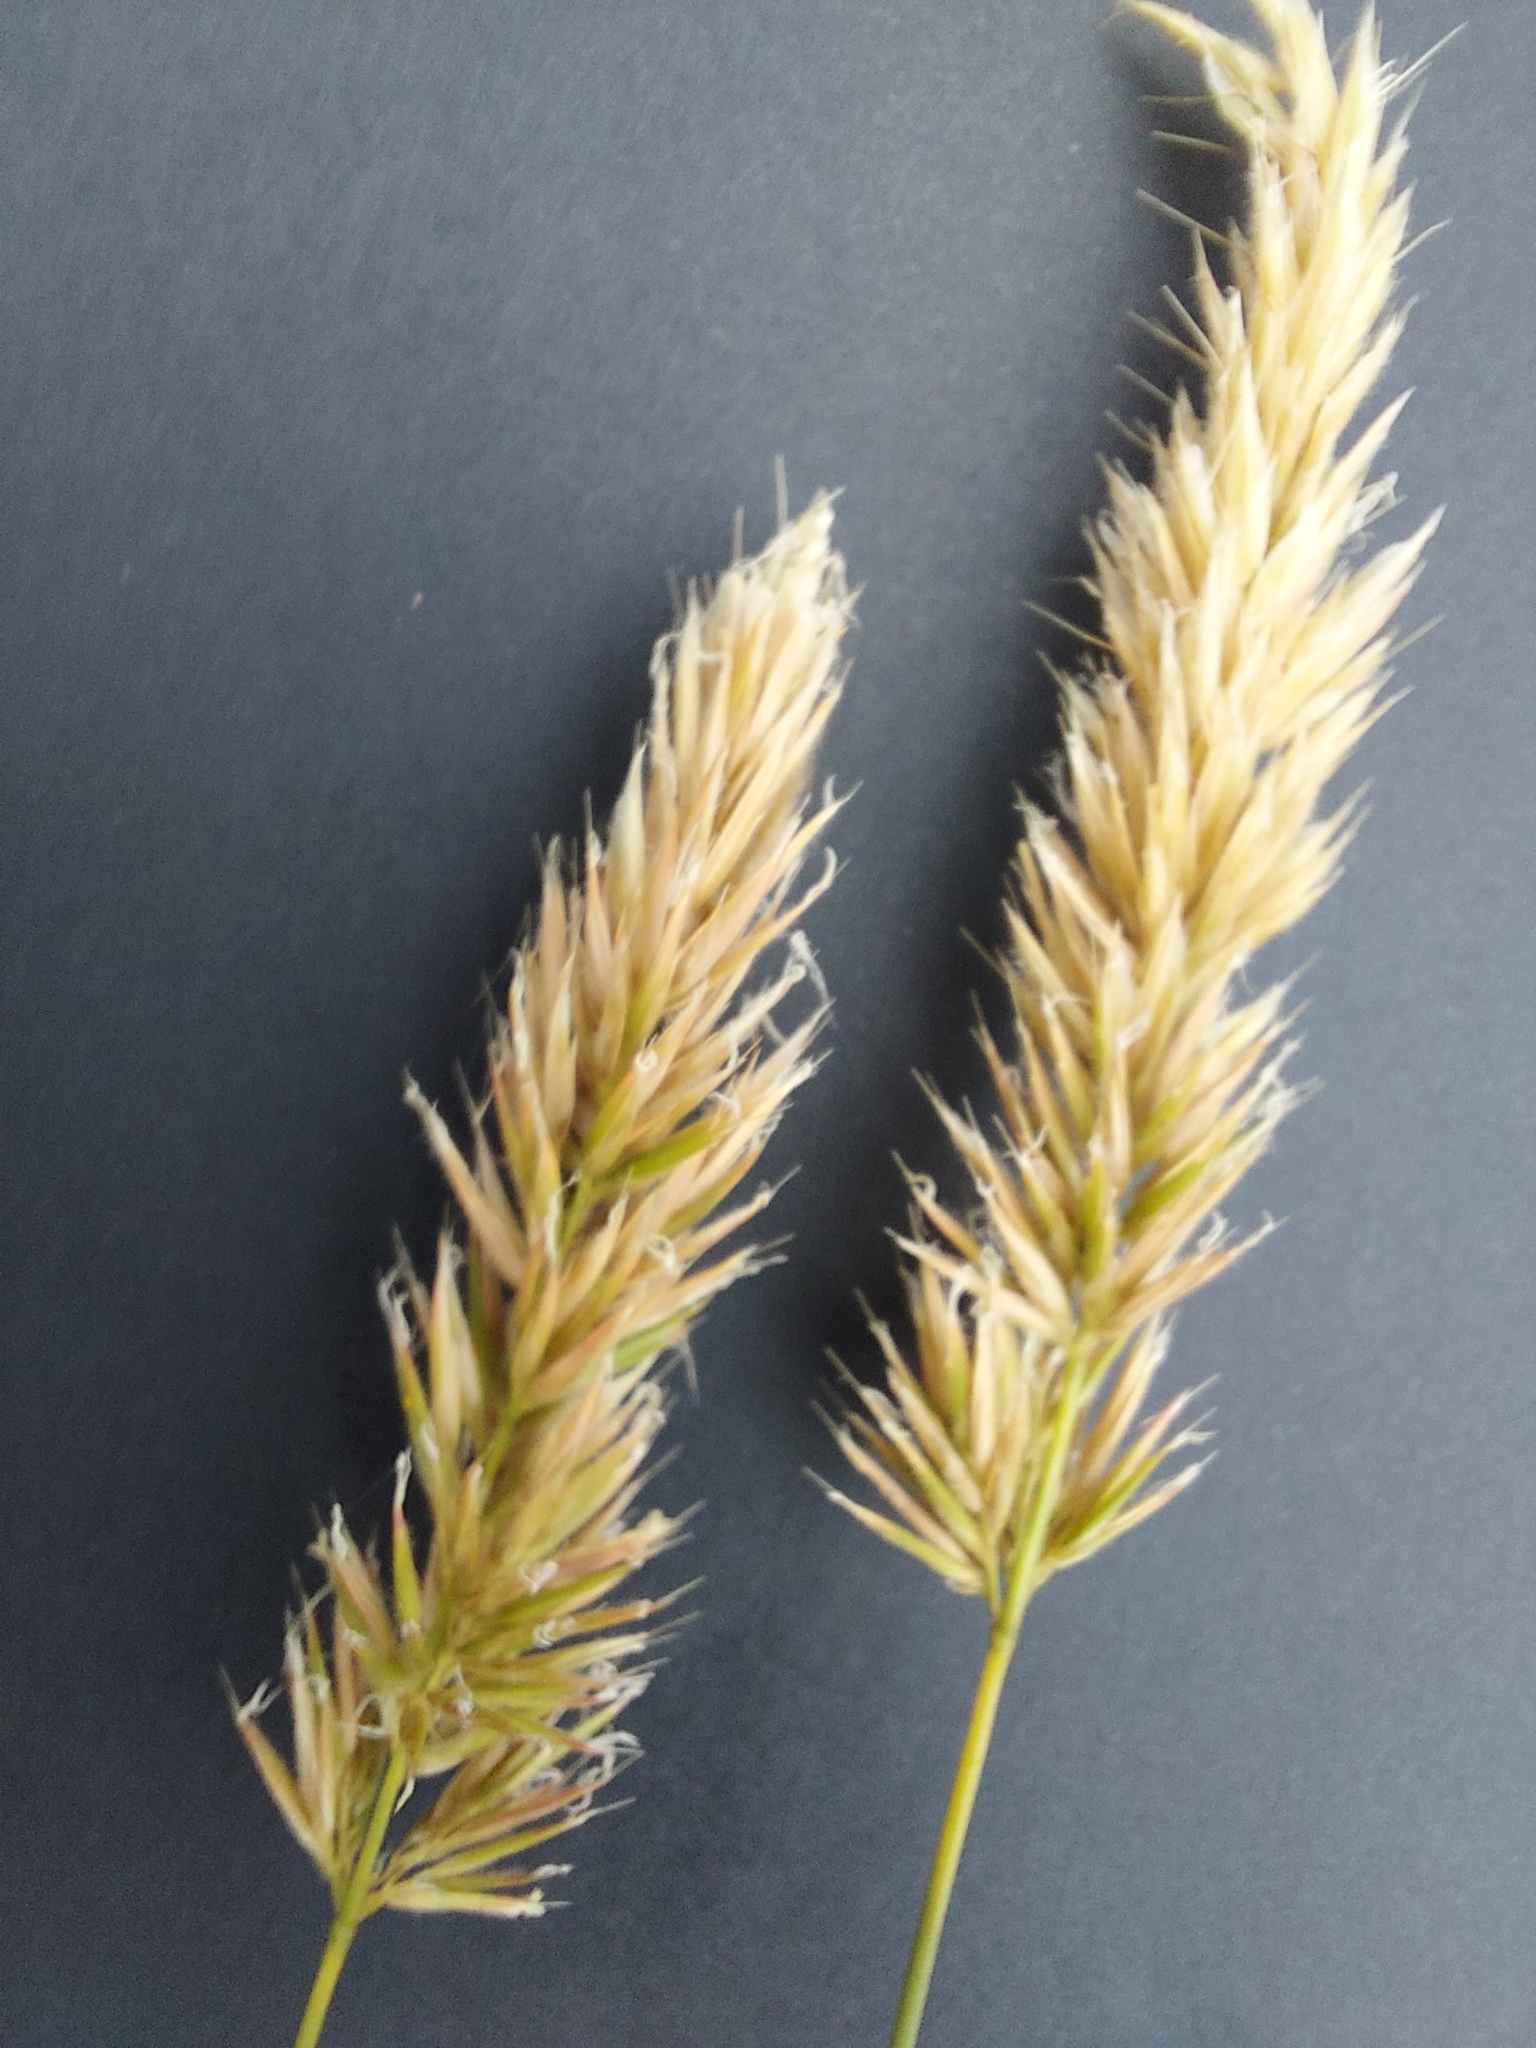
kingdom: Plantae
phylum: Tracheophyta
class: Liliopsida
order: Poales
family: Poaceae
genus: Anthoxanthum
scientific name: Anthoxanthum odoratum
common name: Sweet vernalgrass
